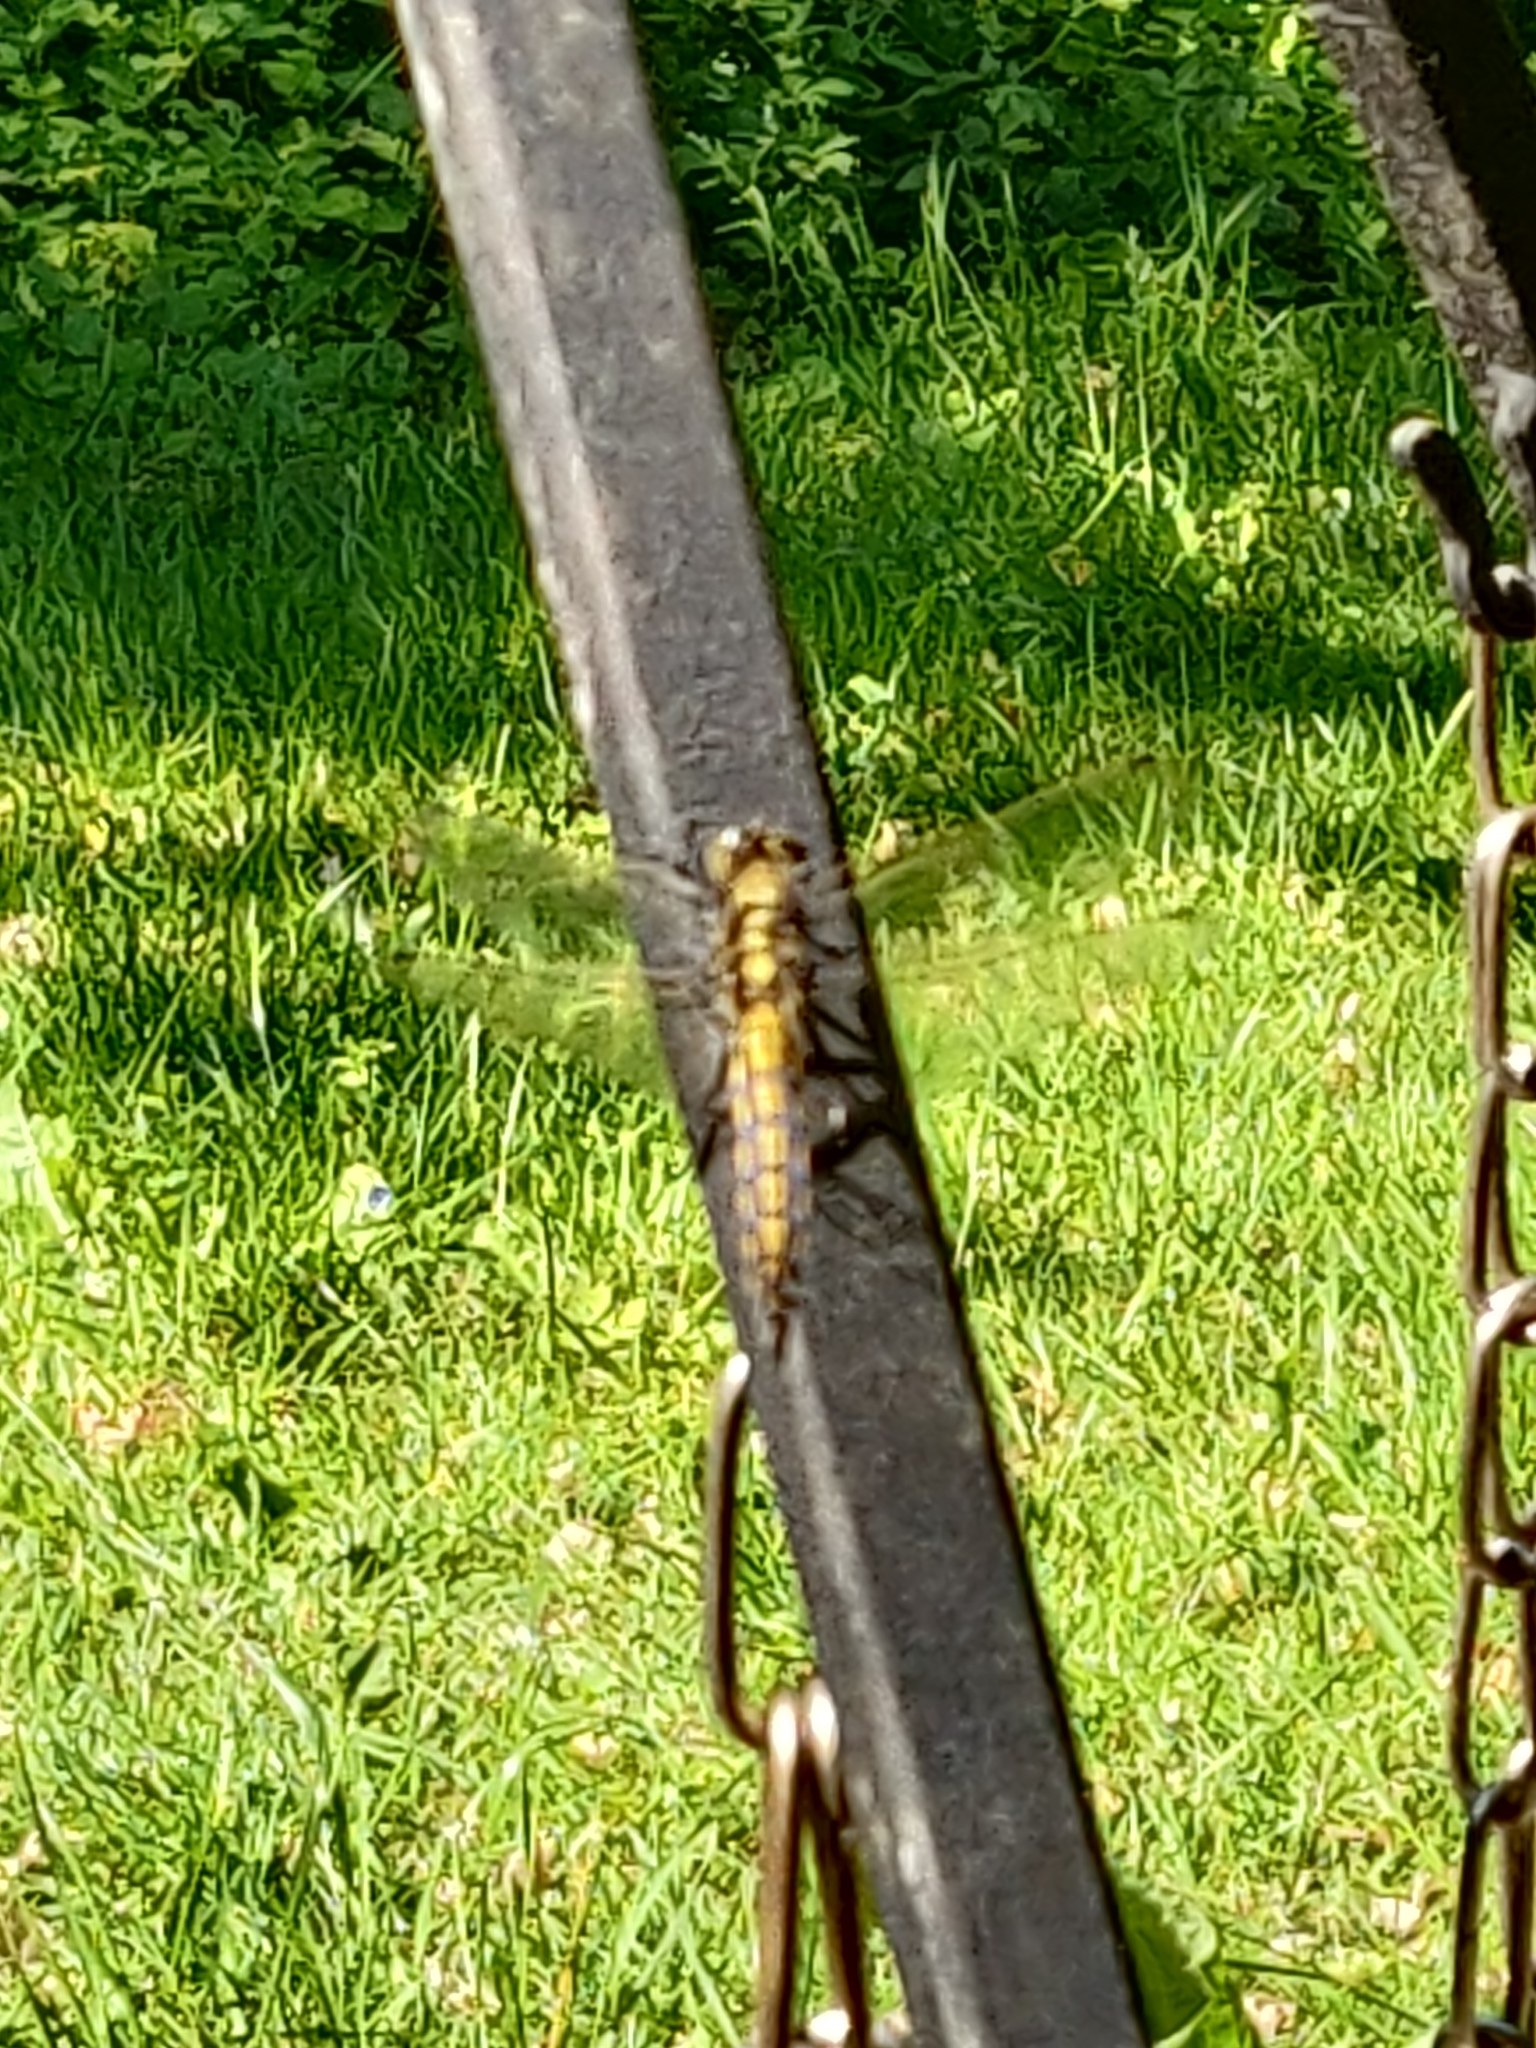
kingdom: Animalia
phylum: Arthropoda
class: Insecta
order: Odonata
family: Libellulidae
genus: Orthetrum
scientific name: Orthetrum cancellatum
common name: Black-tailed skimmer
